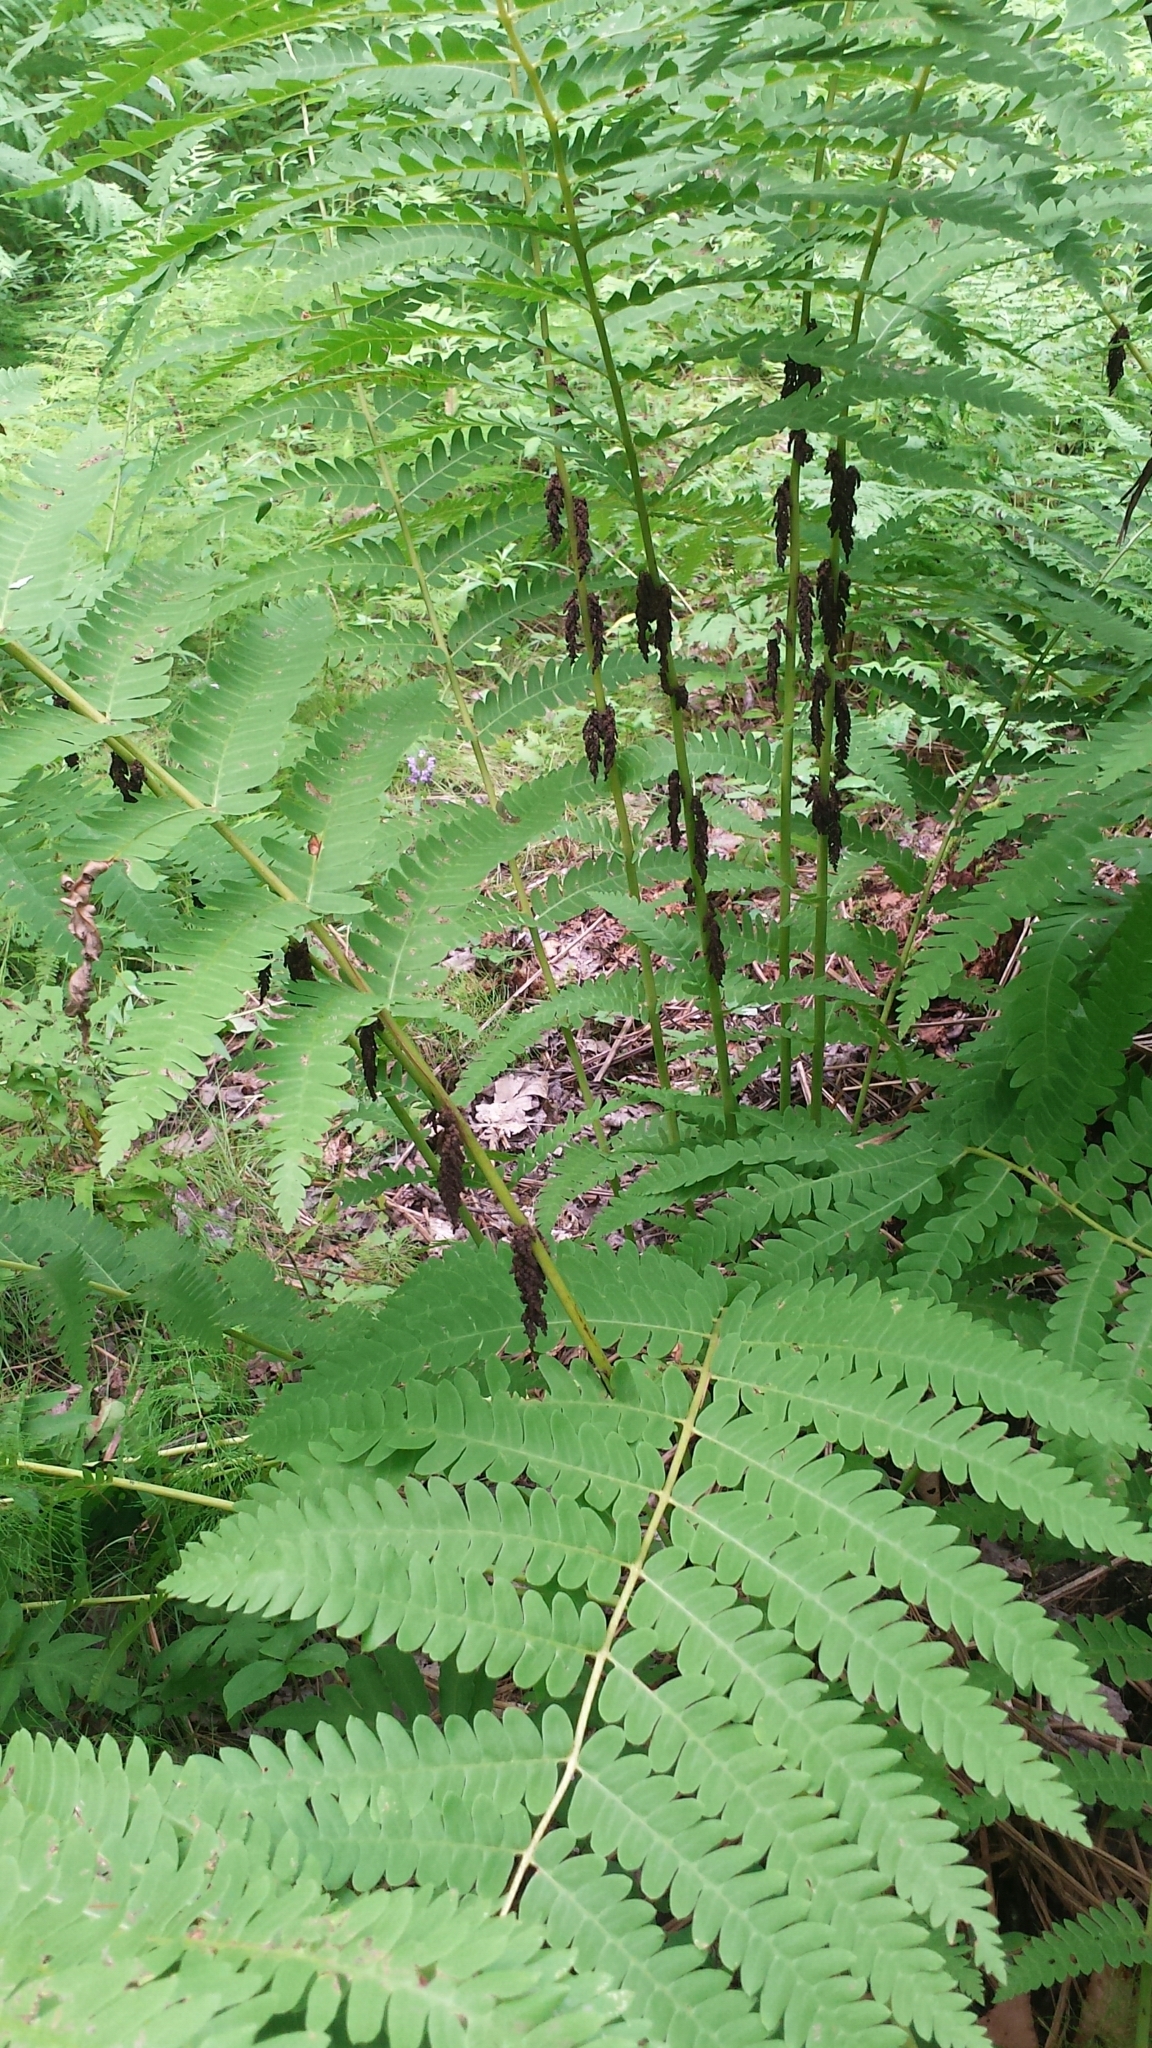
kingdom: Plantae
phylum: Tracheophyta
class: Polypodiopsida
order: Osmundales
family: Osmundaceae
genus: Claytosmunda
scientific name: Claytosmunda claytoniana
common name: Clayton's fern
